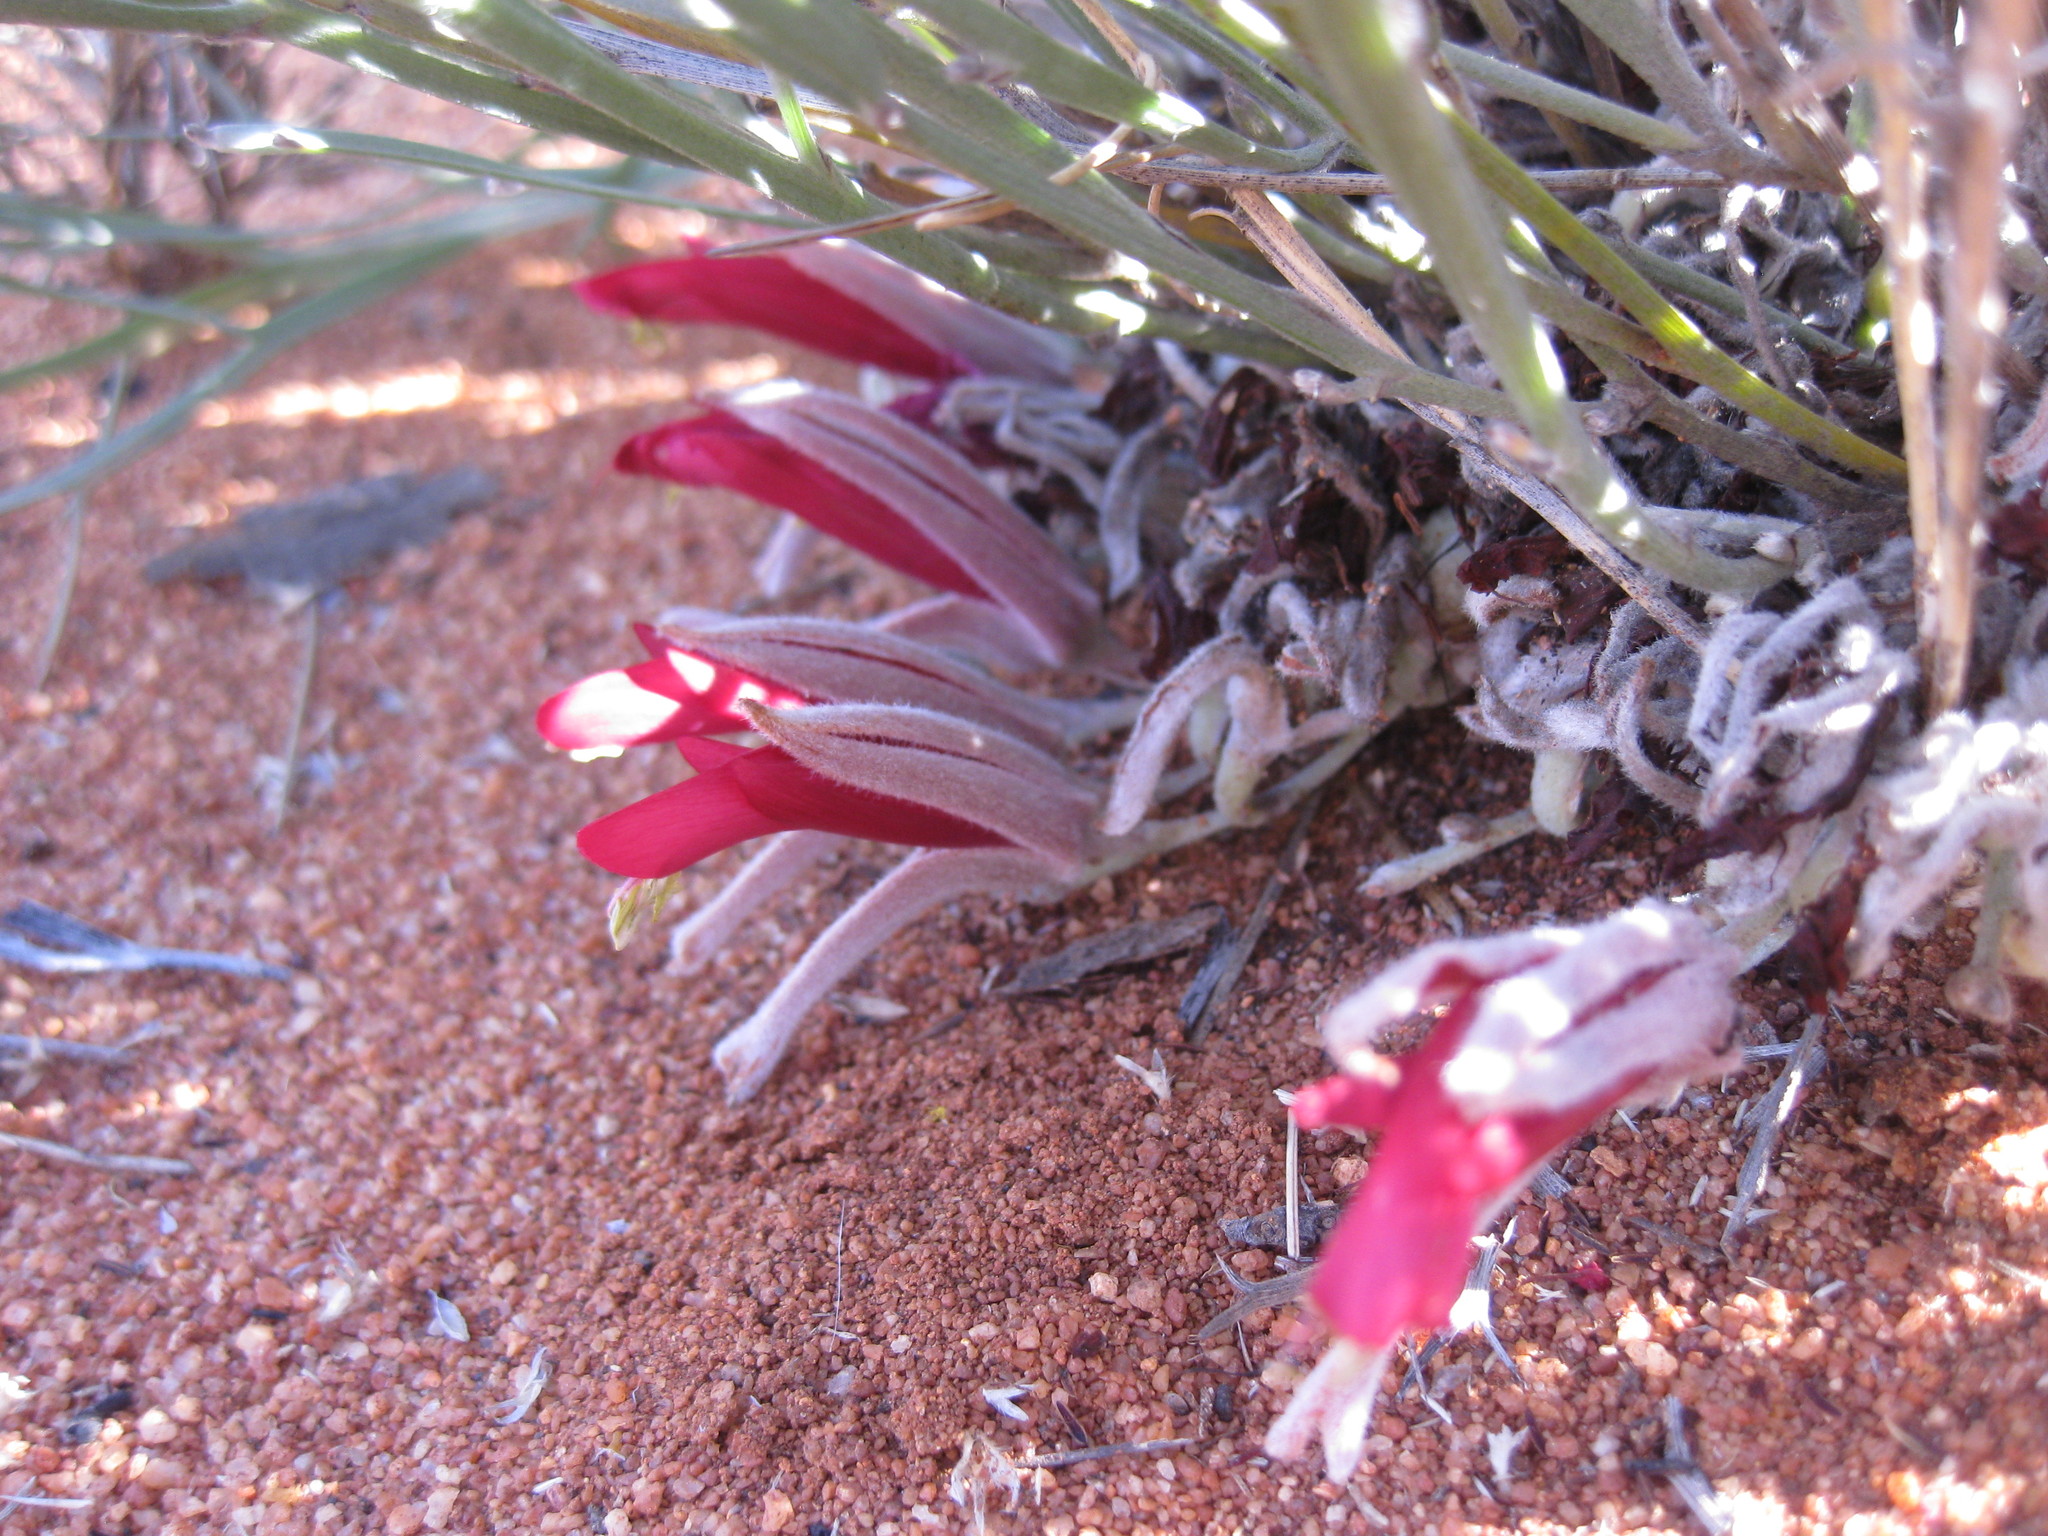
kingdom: Plantae
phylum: Tracheophyta
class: Magnoliopsida
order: Fabales
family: Fabaceae
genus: Leptosema
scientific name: Leptosema chambersii
